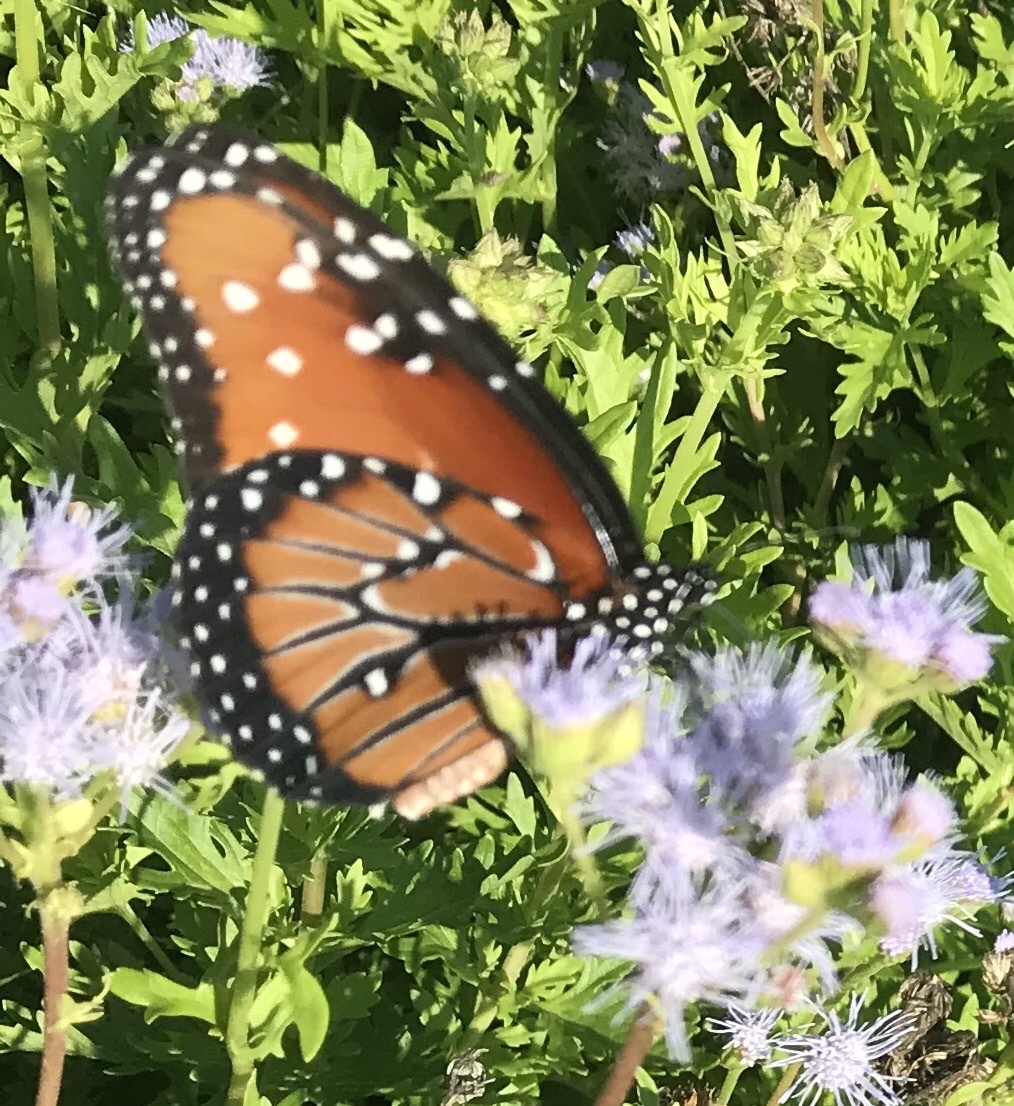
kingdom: Animalia
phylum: Arthropoda
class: Insecta
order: Lepidoptera
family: Nymphalidae
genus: Danaus
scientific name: Danaus gilippus
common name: Queen
